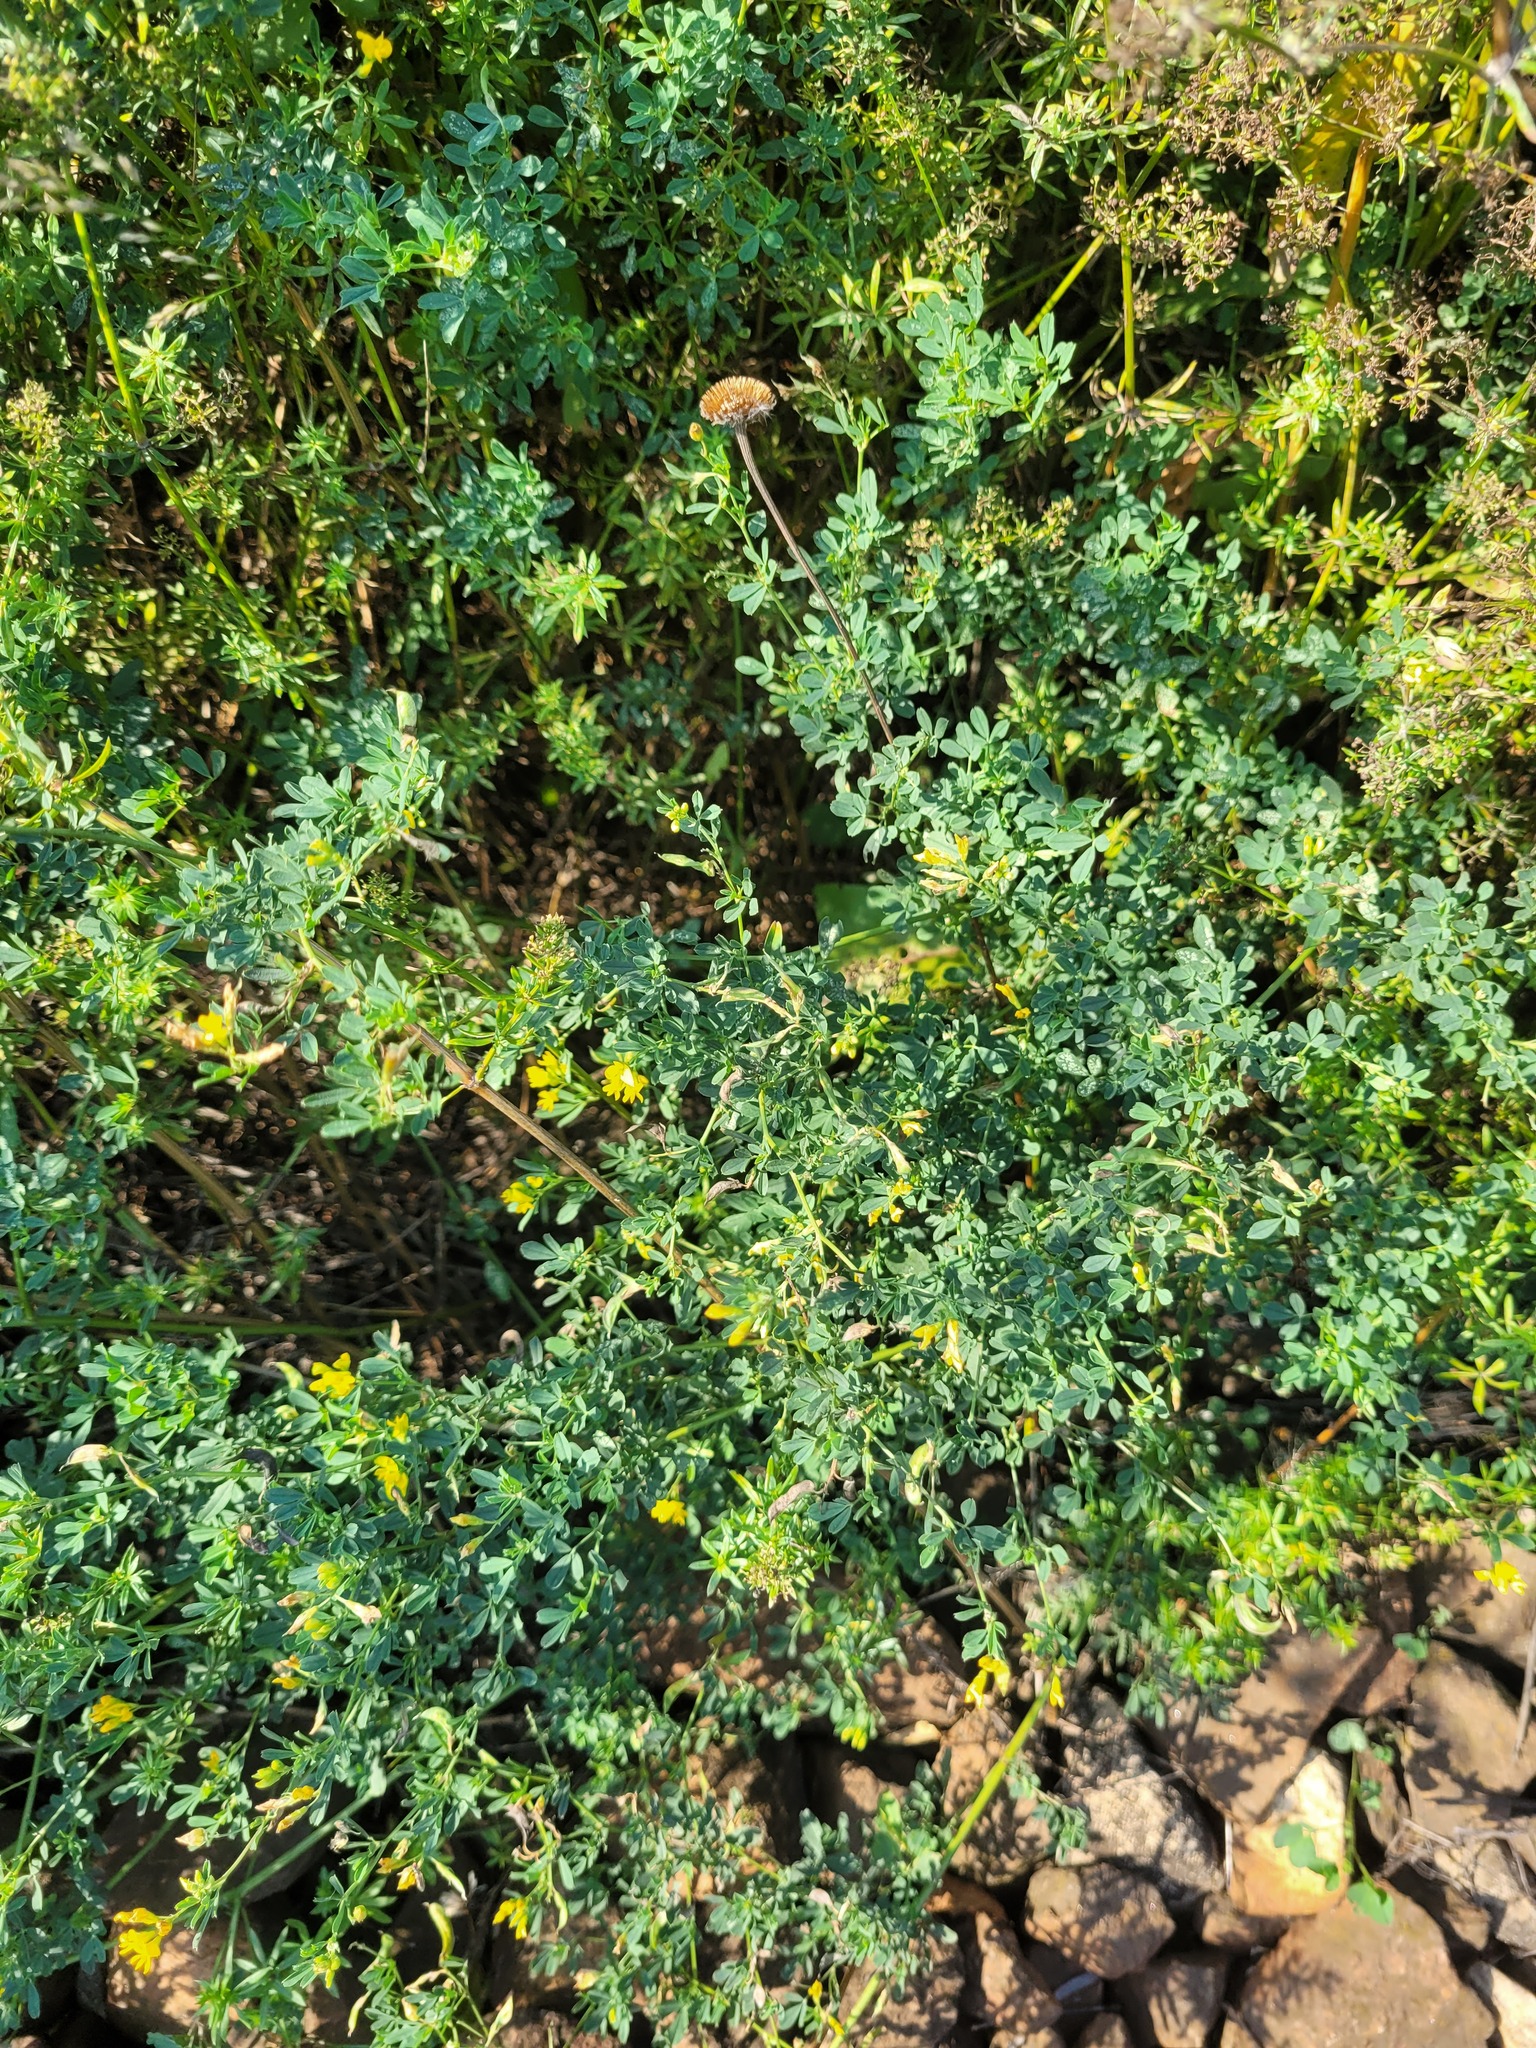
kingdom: Plantae
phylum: Tracheophyta
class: Magnoliopsida
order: Fabales
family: Fabaceae
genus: Medicago
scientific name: Medicago falcata
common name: Sickle medick
